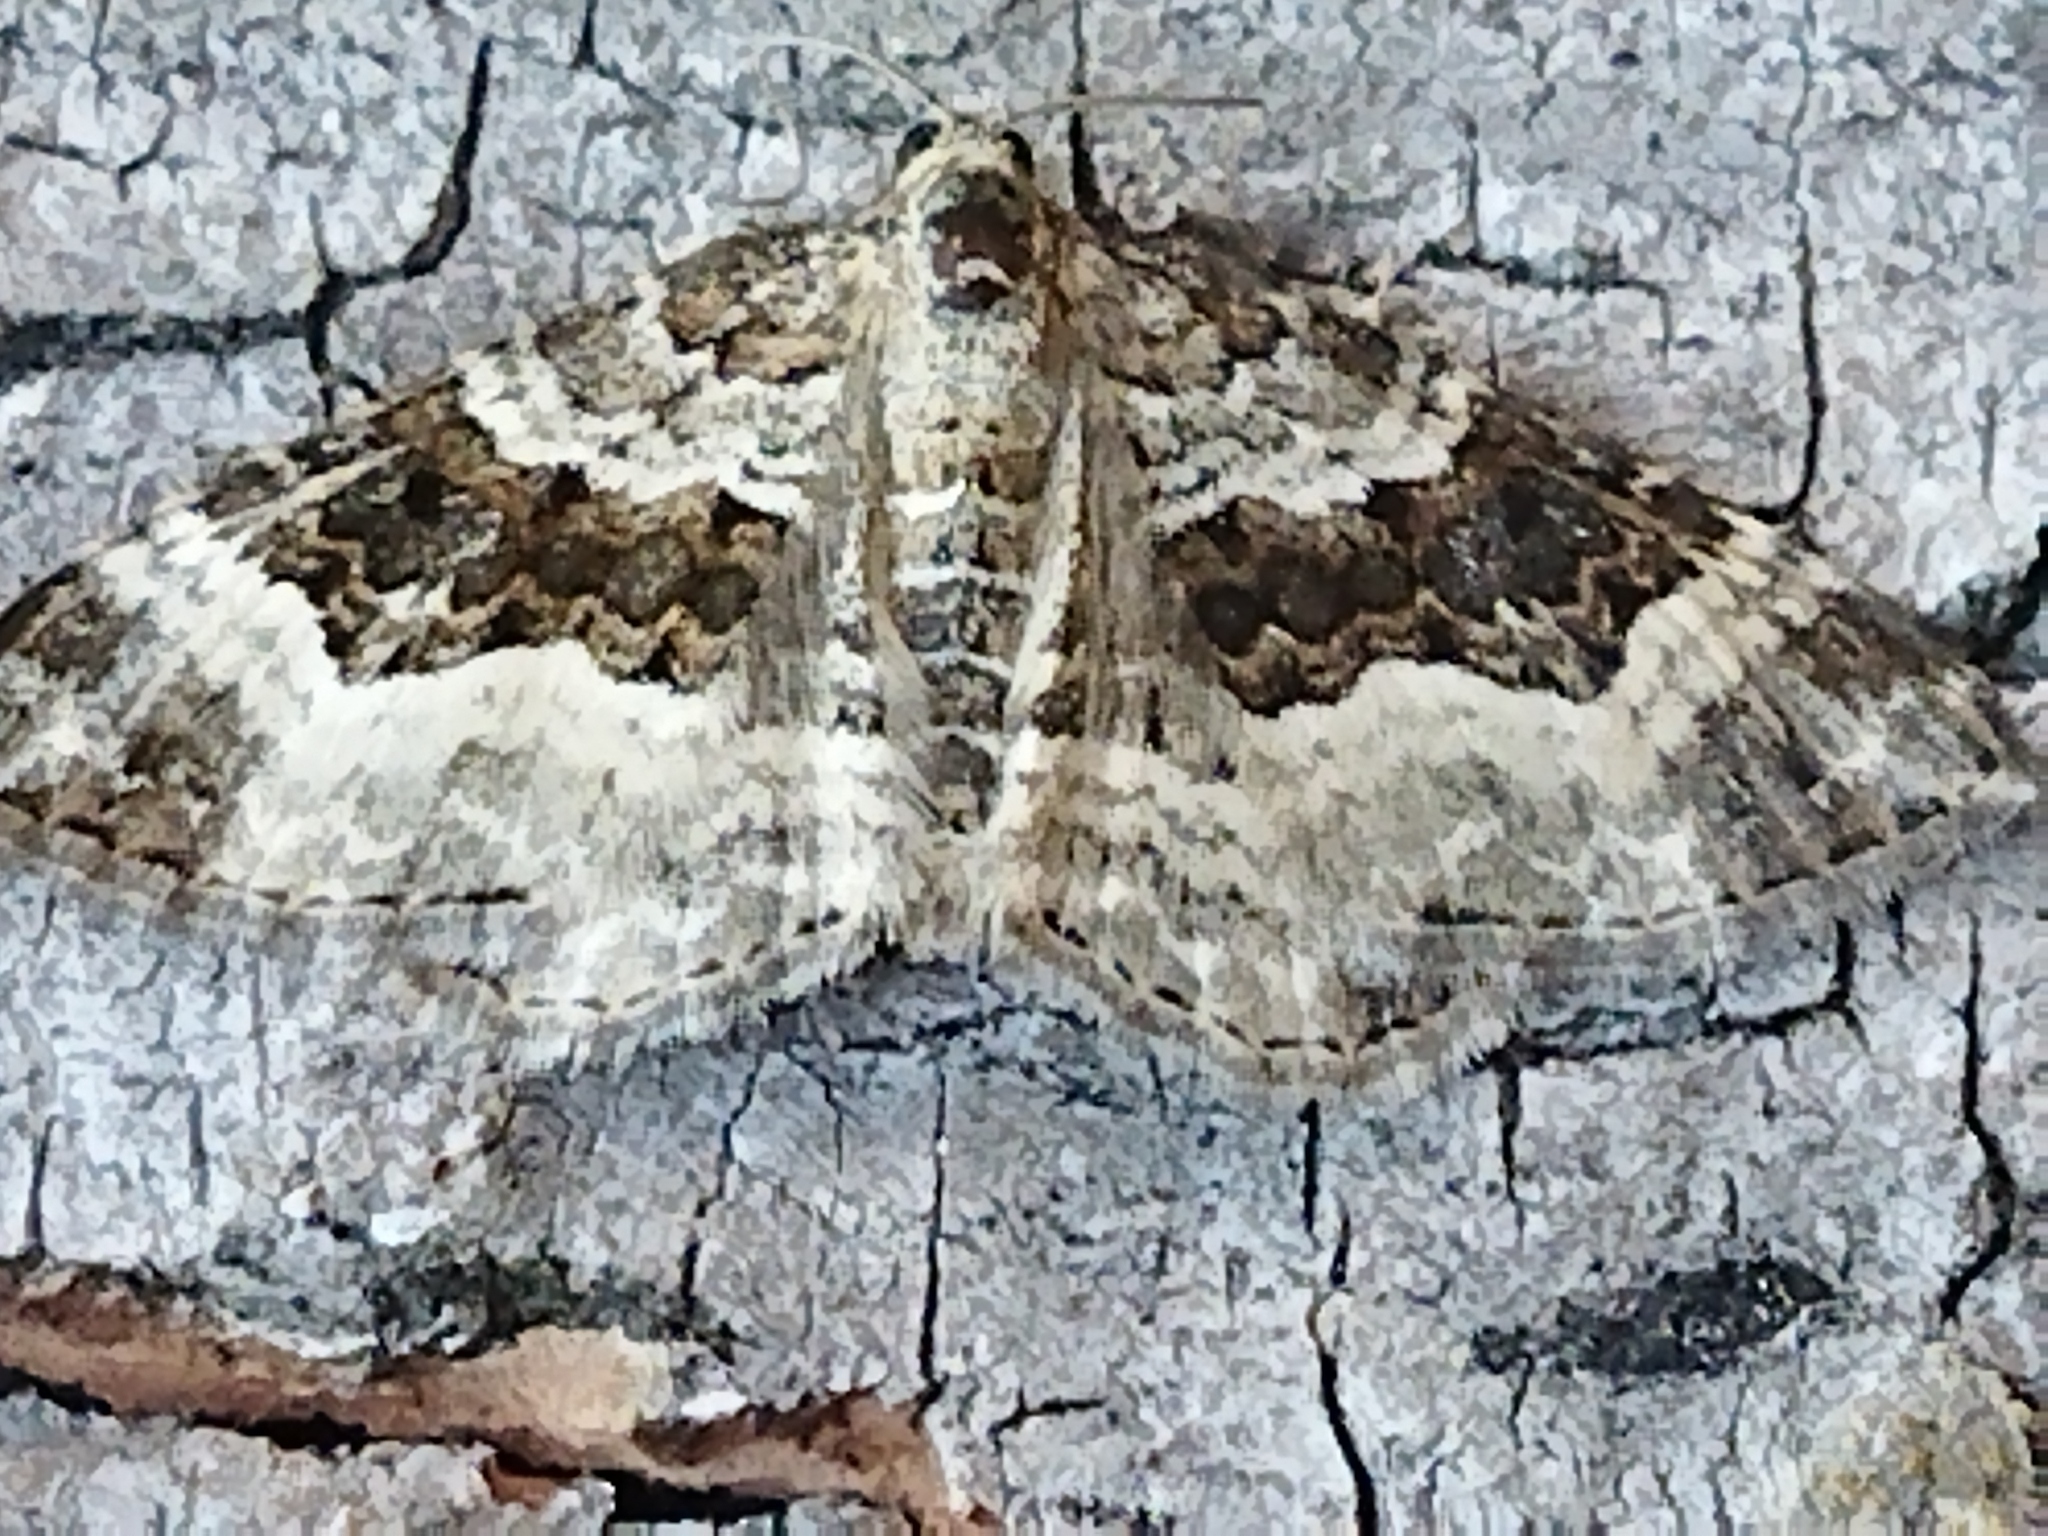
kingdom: Animalia
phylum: Arthropoda
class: Insecta
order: Lepidoptera
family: Geometridae
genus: Epirrhoe
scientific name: Epirrhoe alternata
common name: Common carpet
